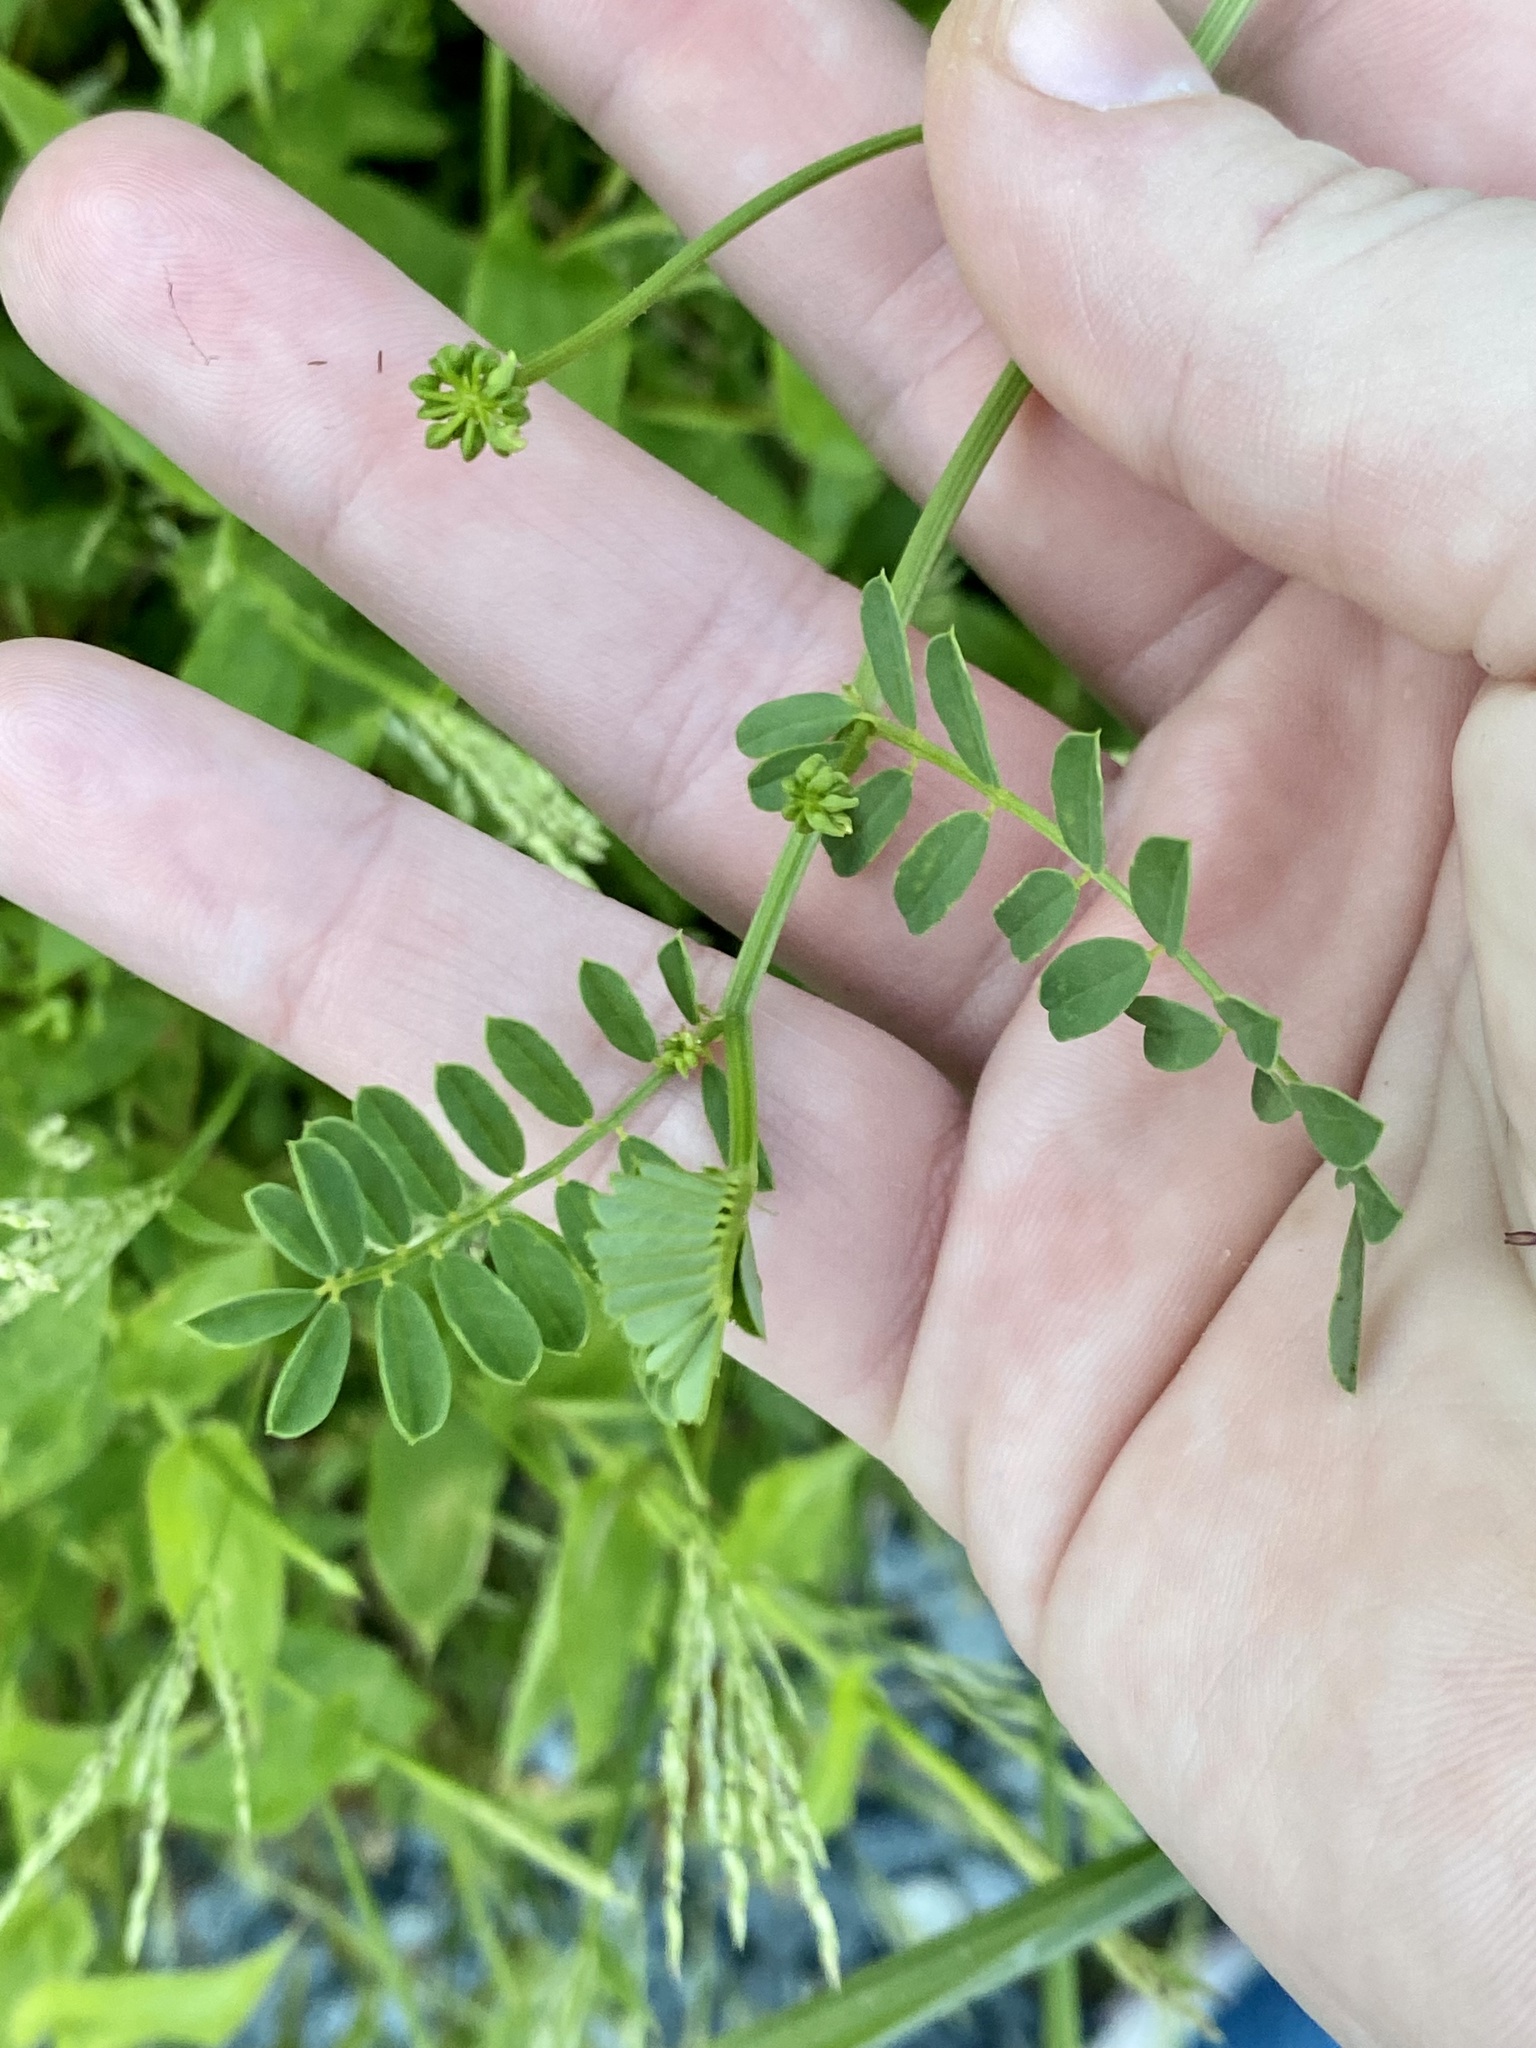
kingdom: Plantae
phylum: Tracheophyta
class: Magnoliopsida
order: Fabales
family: Fabaceae
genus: Coronilla
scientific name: Coronilla varia
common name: Crownvetch
